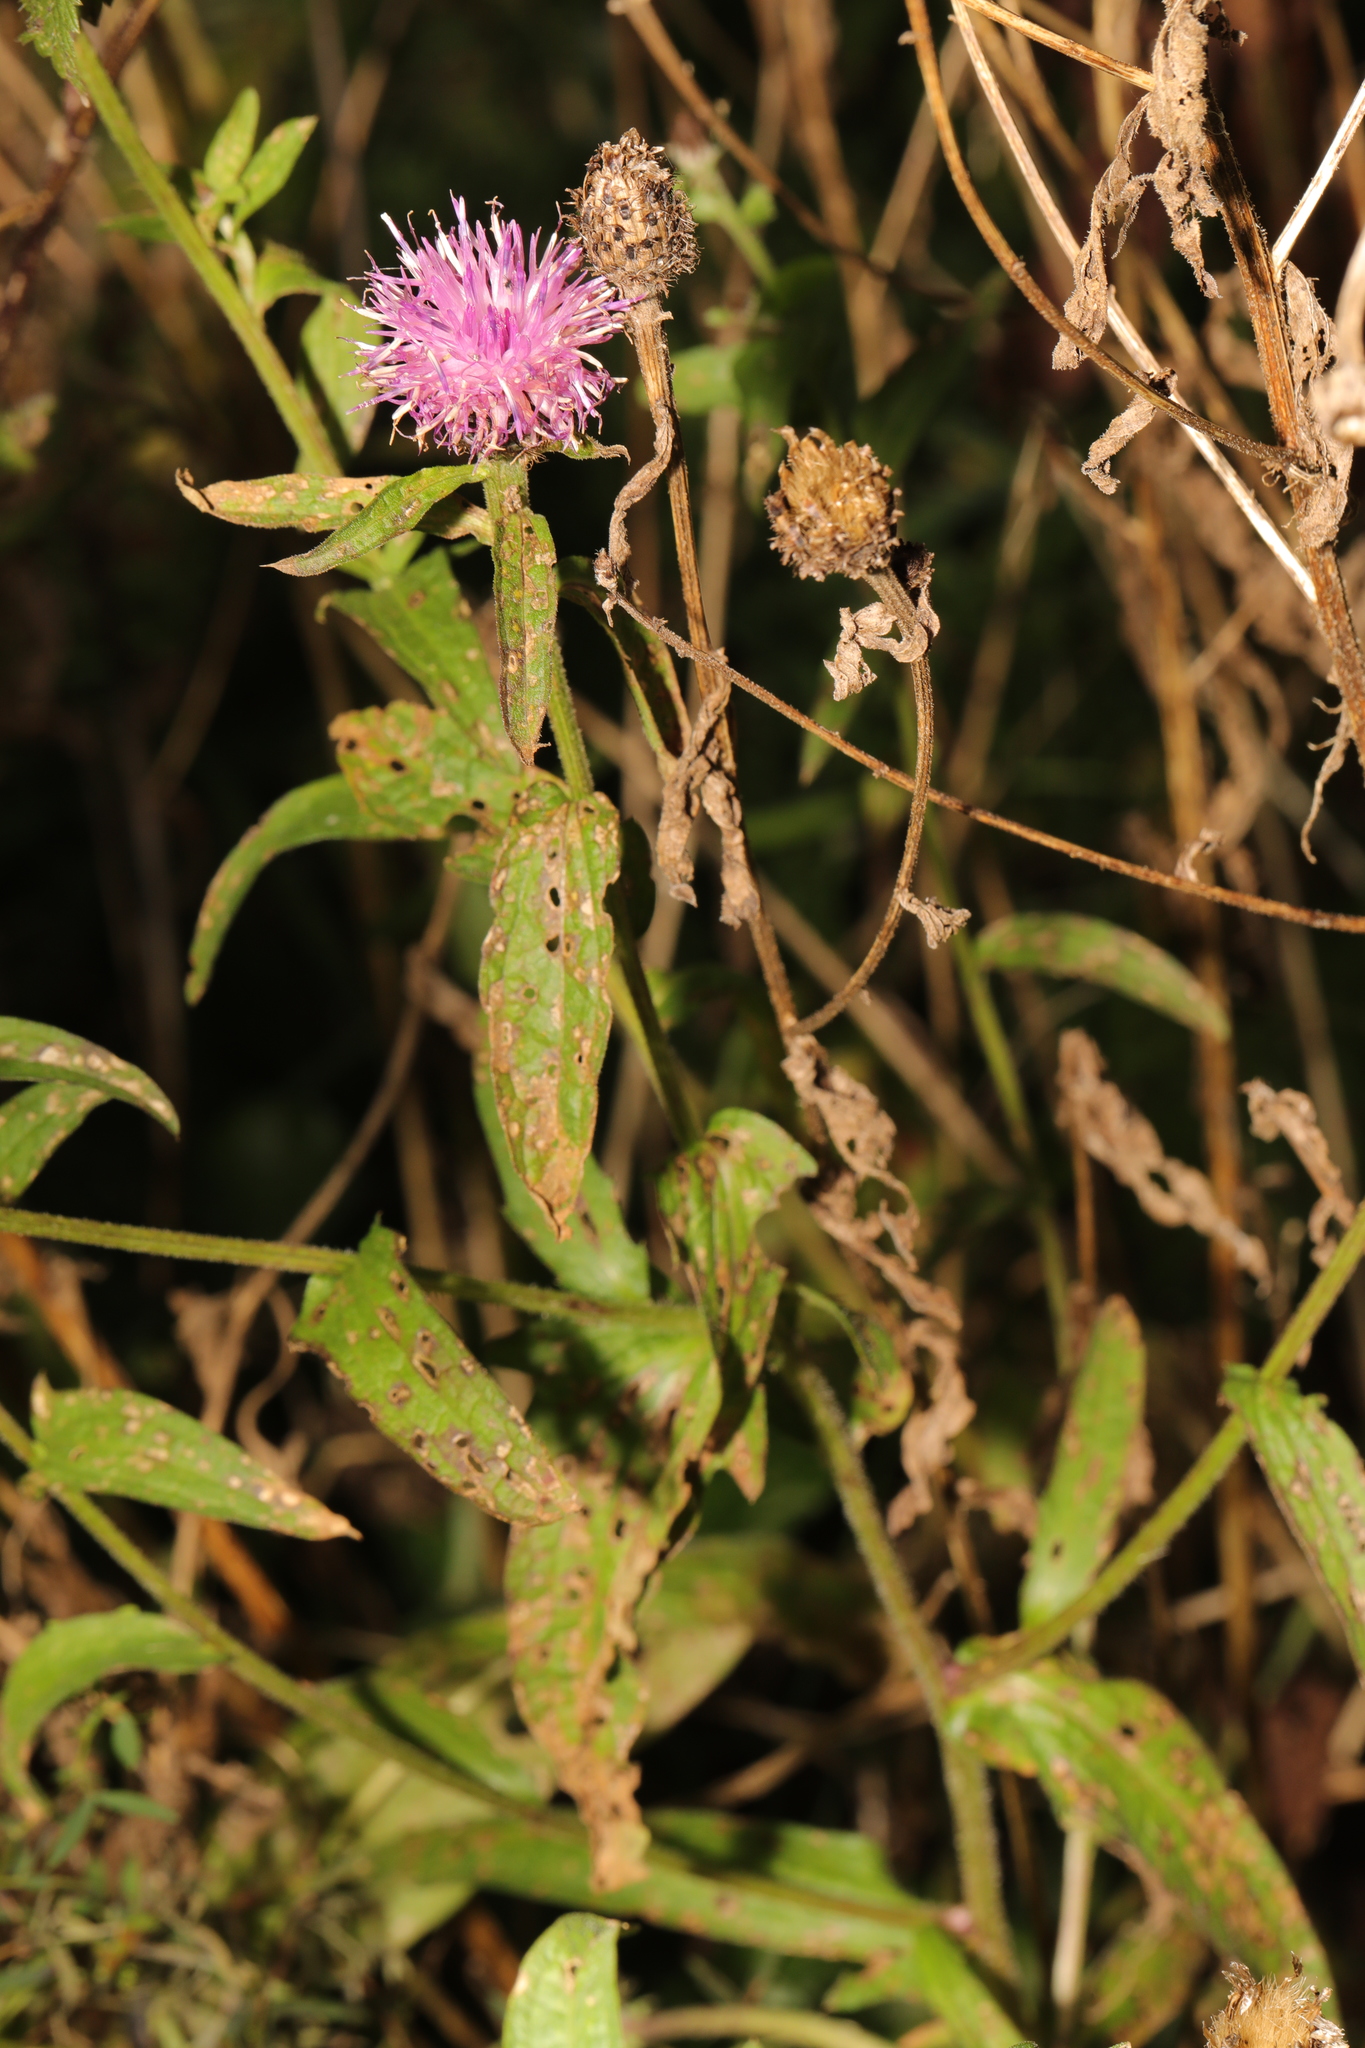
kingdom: Plantae
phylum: Tracheophyta
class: Magnoliopsida
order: Asterales
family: Asteraceae
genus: Centaurea
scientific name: Centaurea nigra
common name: Lesser knapweed
